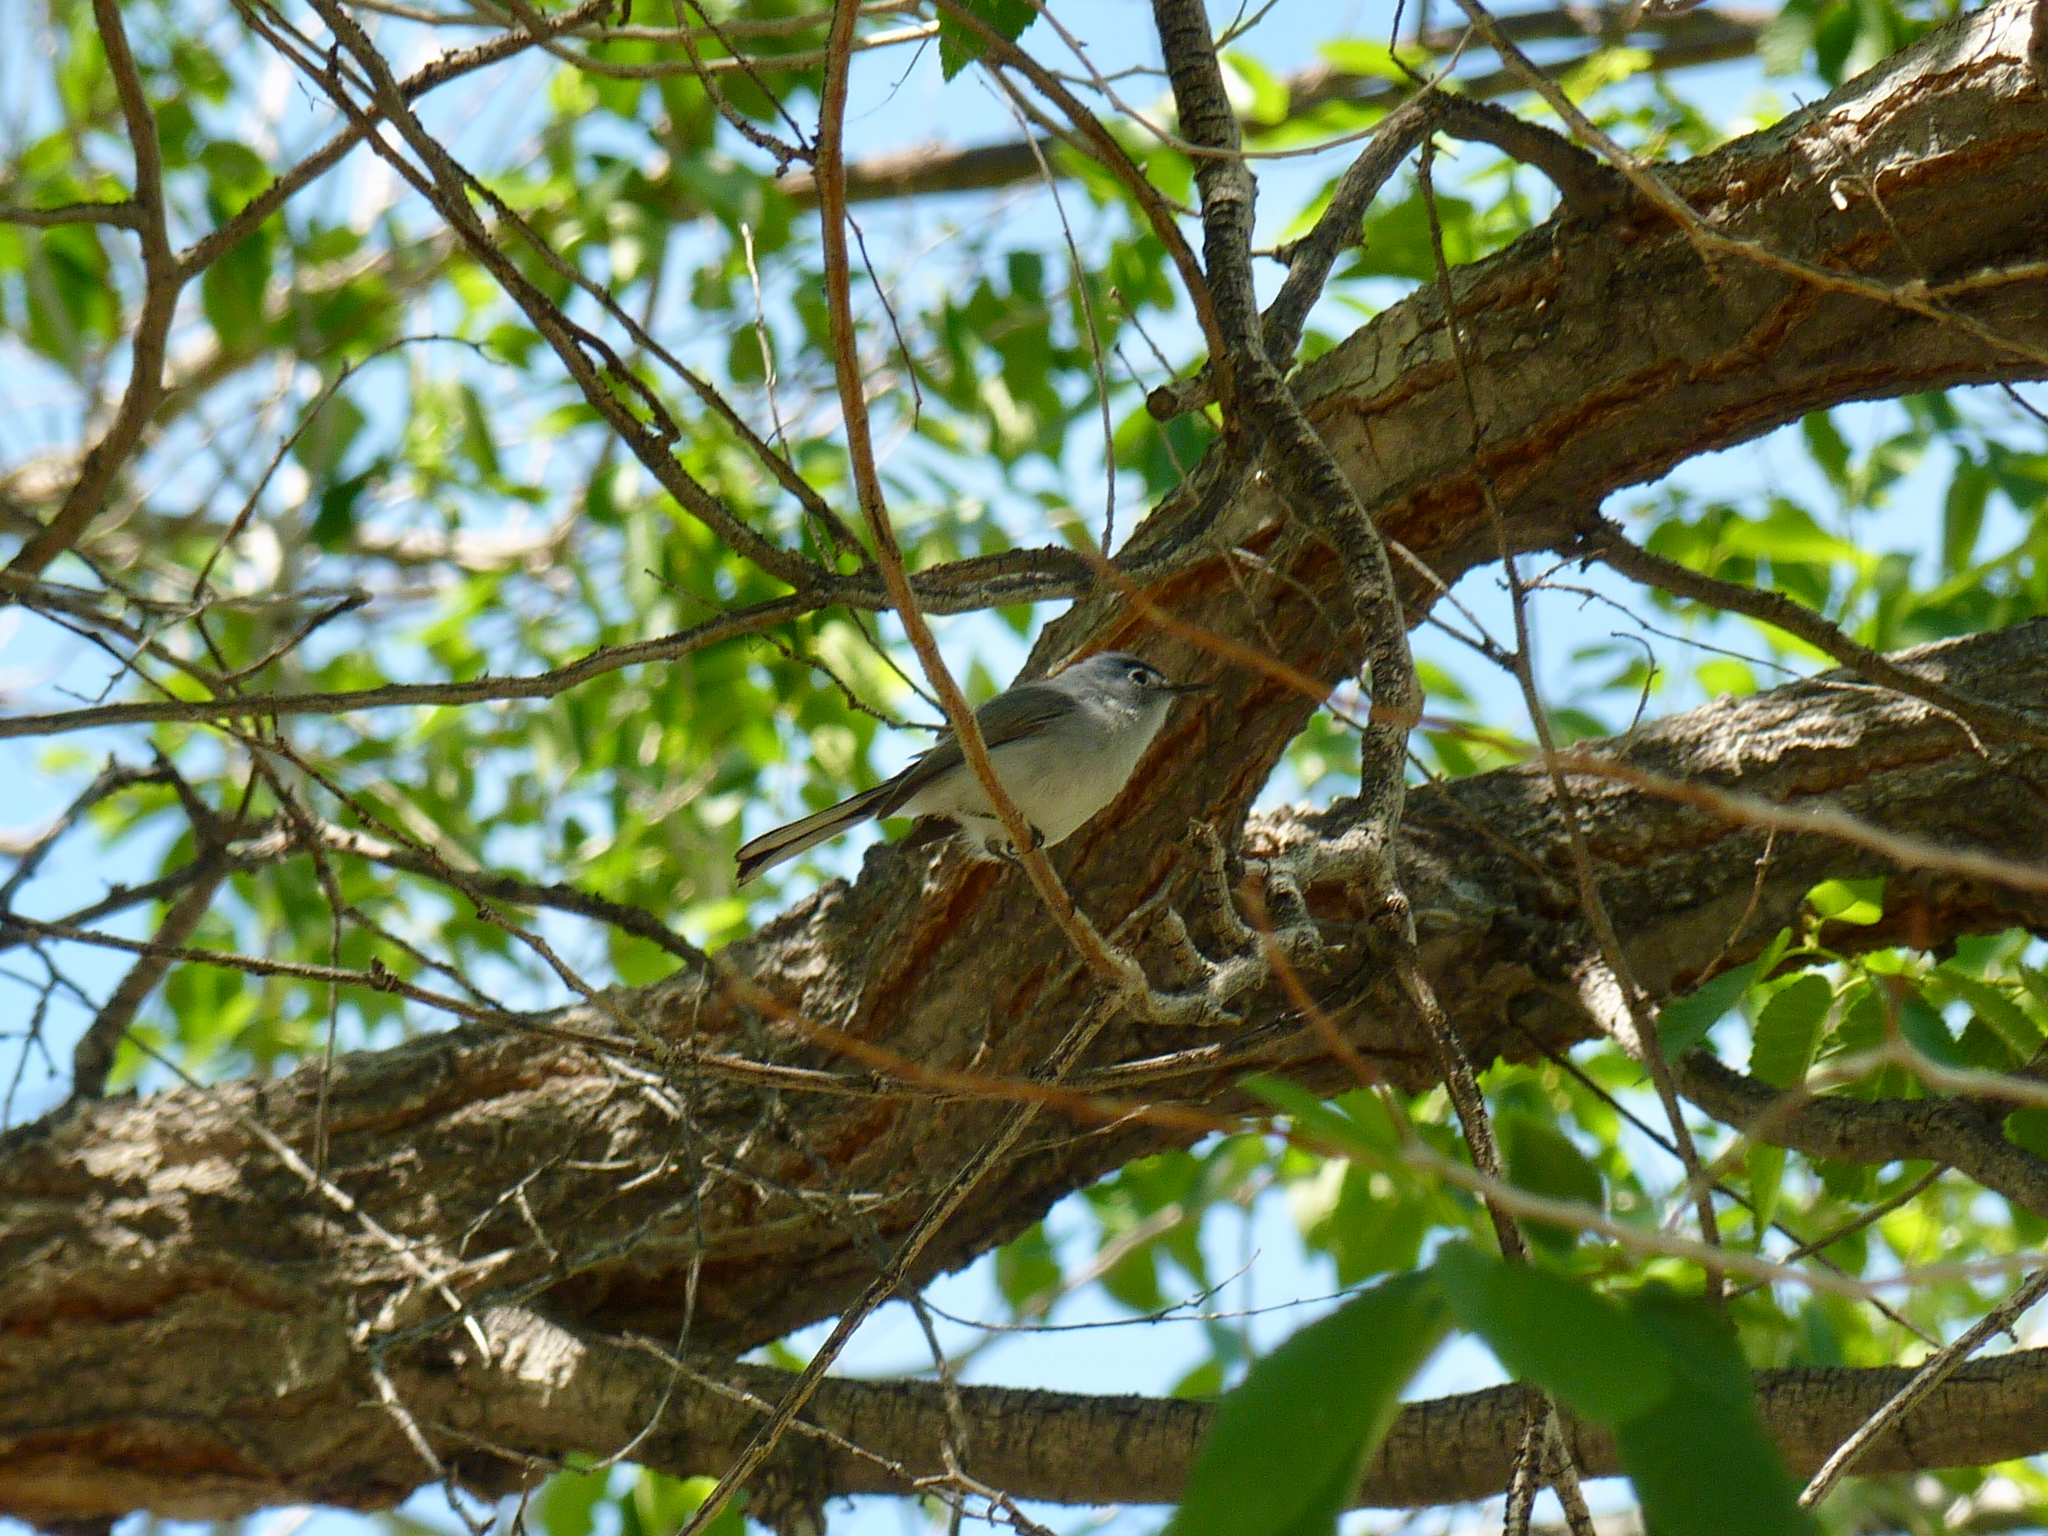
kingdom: Animalia
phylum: Chordata
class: Aves
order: Passeriformes
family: Polioptilidae
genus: Polioptila
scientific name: Polioptila caerulea
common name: Blue-gray gnatcatcher
